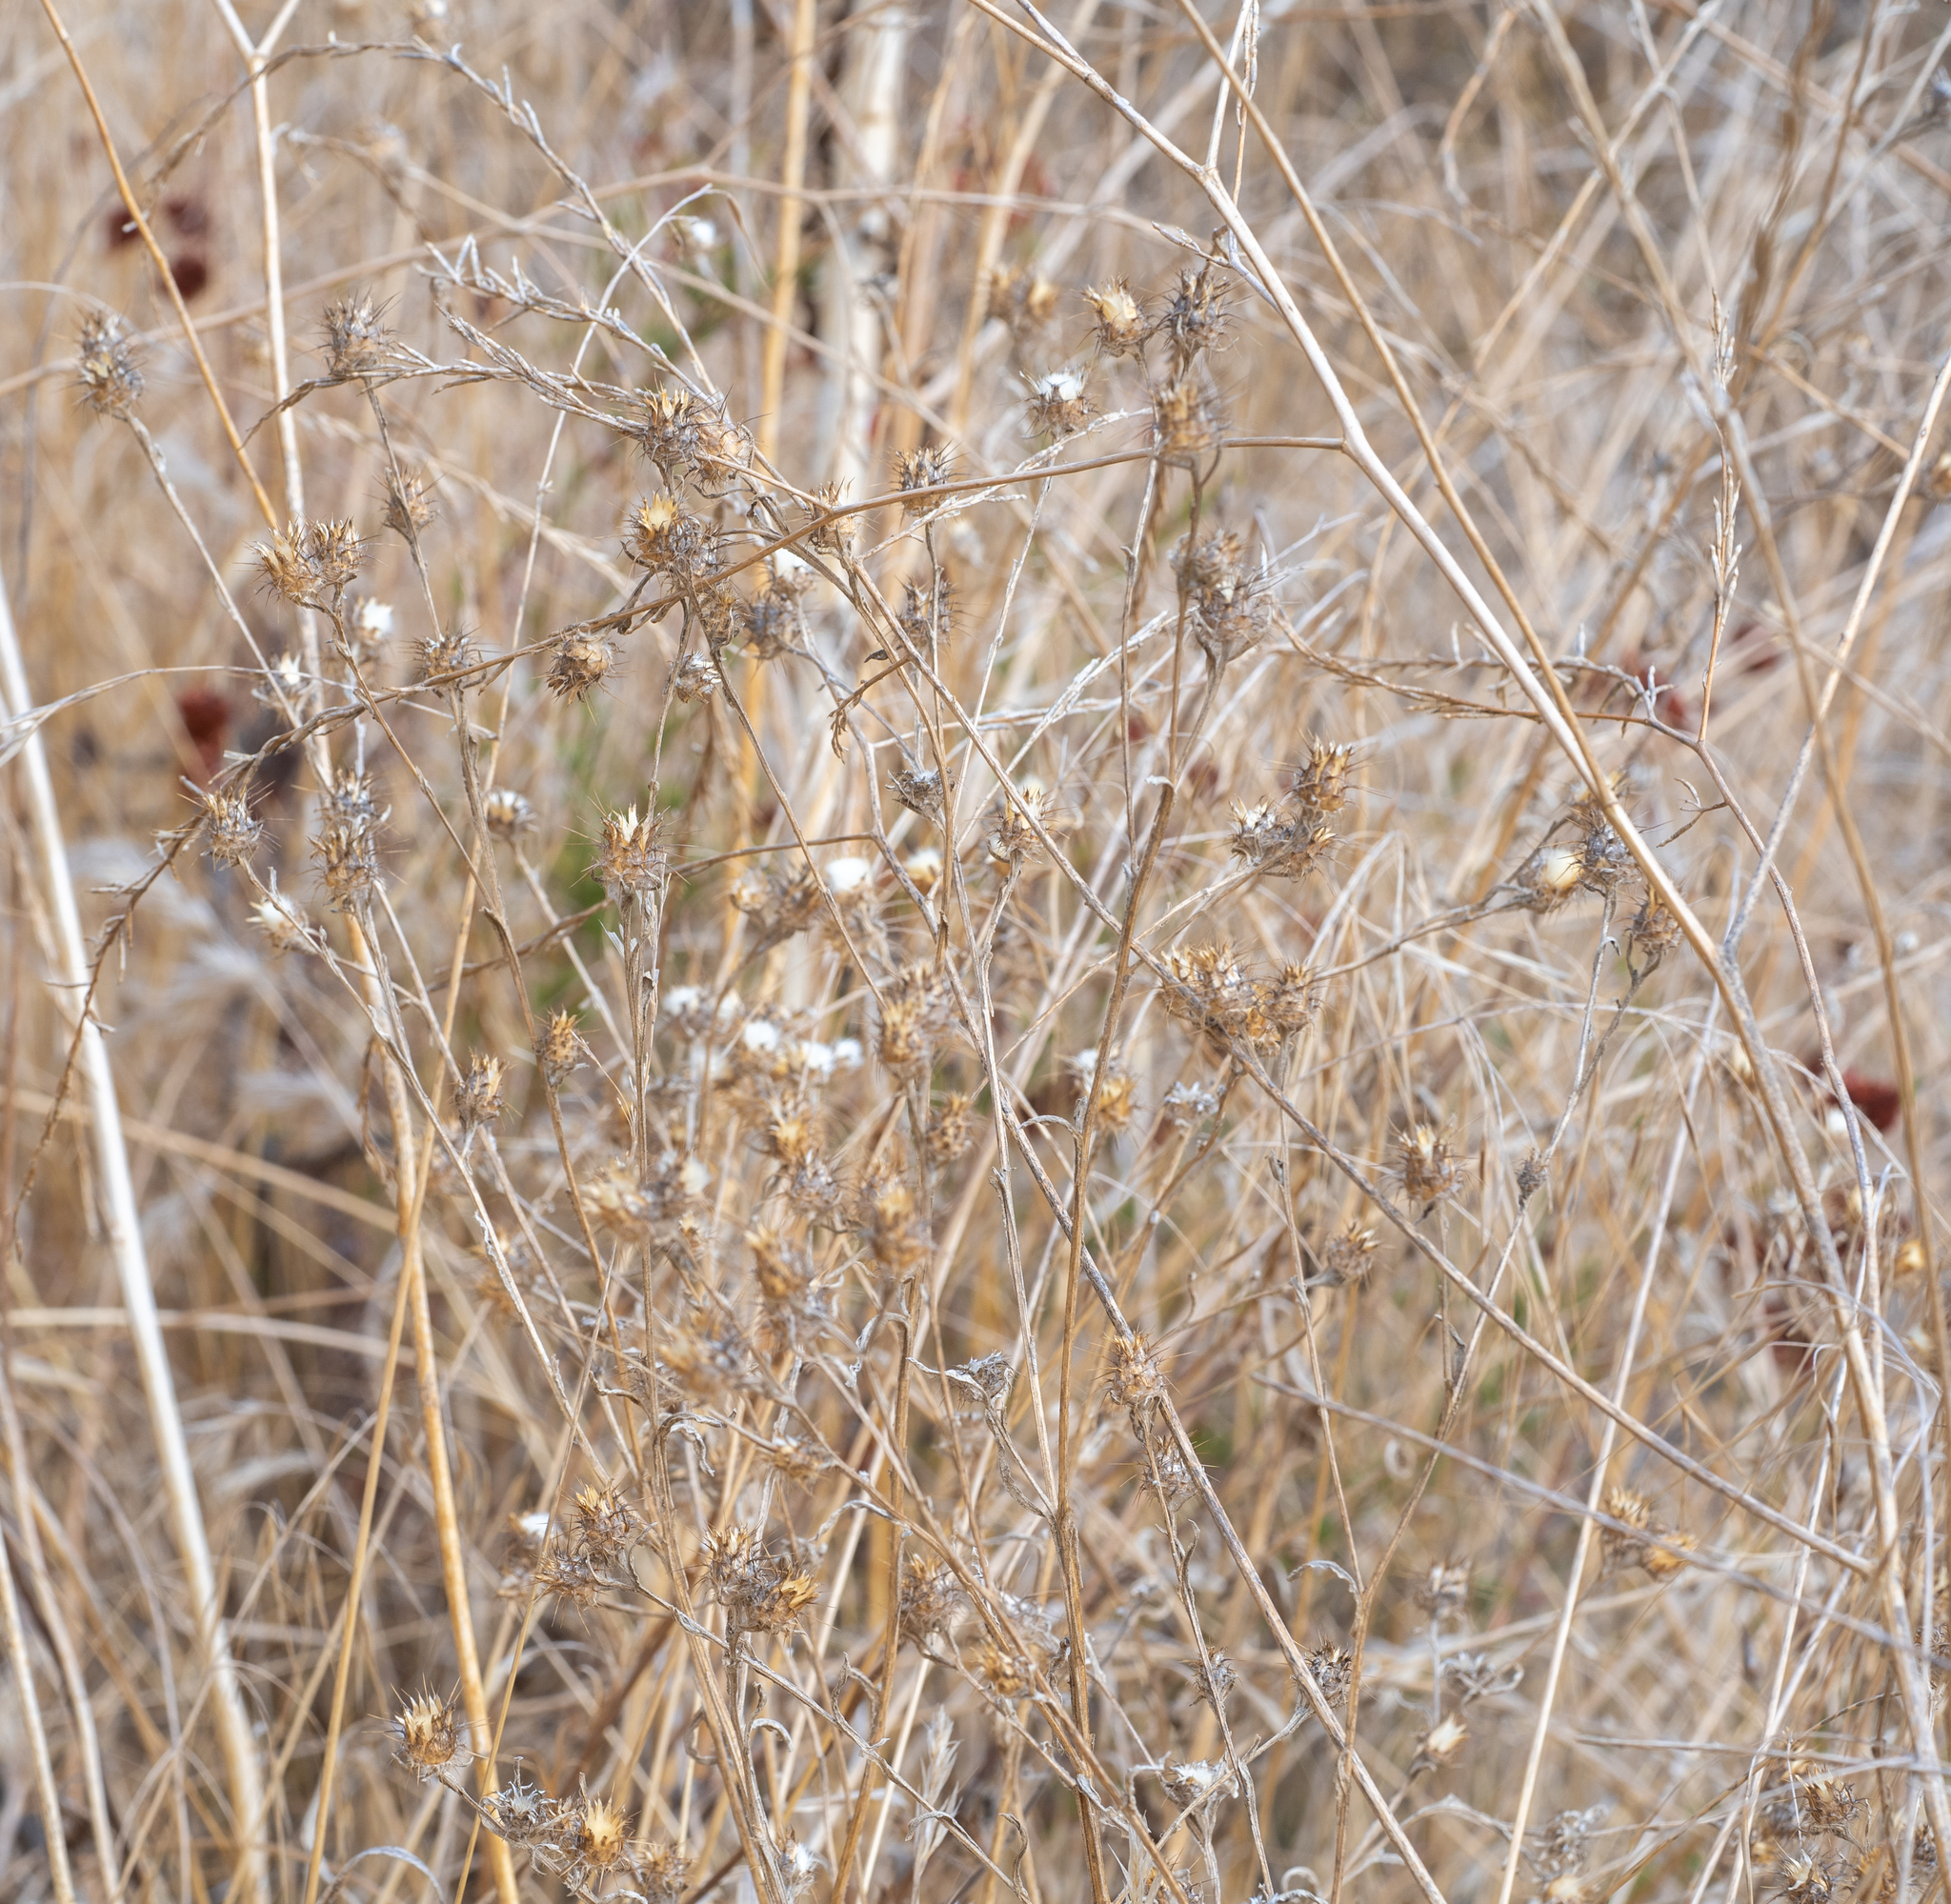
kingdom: Plantae
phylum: Tracheophyta
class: Magnoliopsida
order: Asterales
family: Asteraceae
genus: Centaurea
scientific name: Centaurea melitensis
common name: Maltese star-thistle
